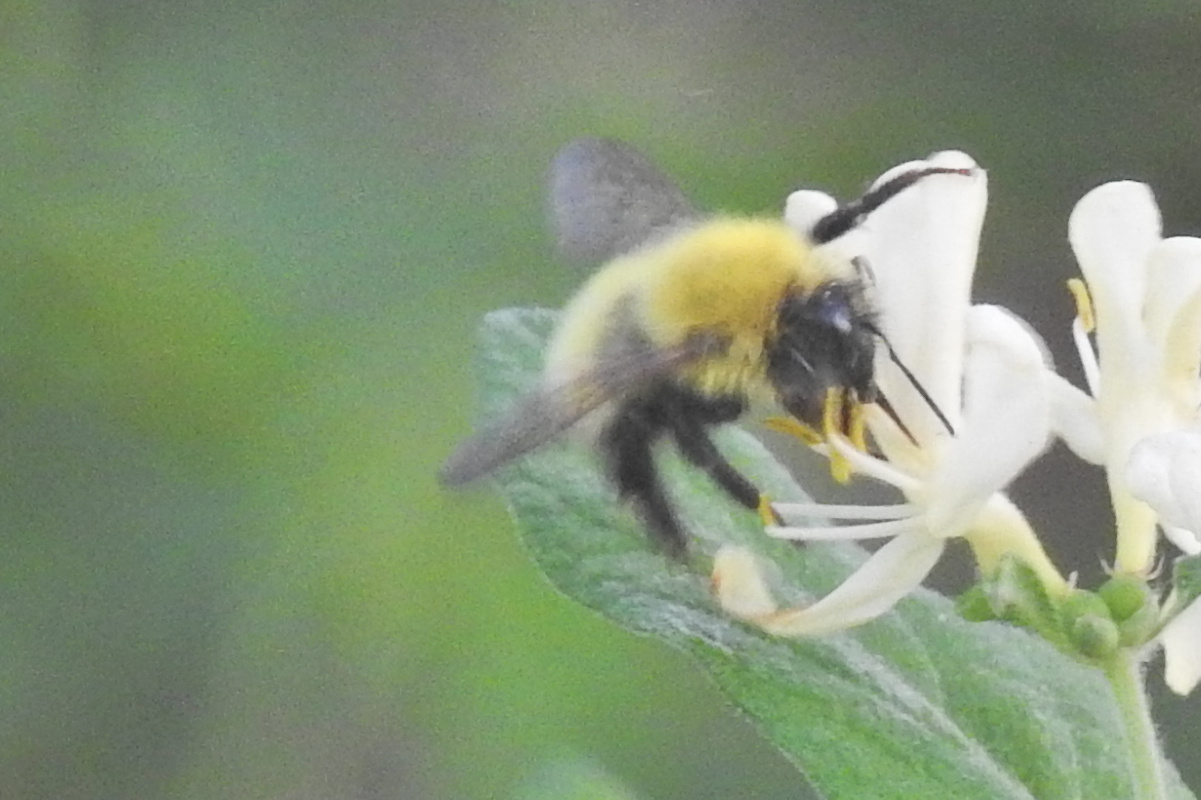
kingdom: Animalia
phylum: Arthropoda
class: Insecta
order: Hymenoptera
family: Apidae
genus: Bombus
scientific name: Bombus perplexus
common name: Confusing bumble bee
